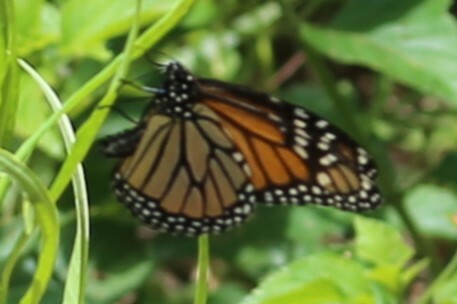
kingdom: Animalia
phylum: Arthropoda
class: Insecta
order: Lepidoptera
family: Nymphalidae
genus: Danaus
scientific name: Danaus plexippus
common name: Monarch
